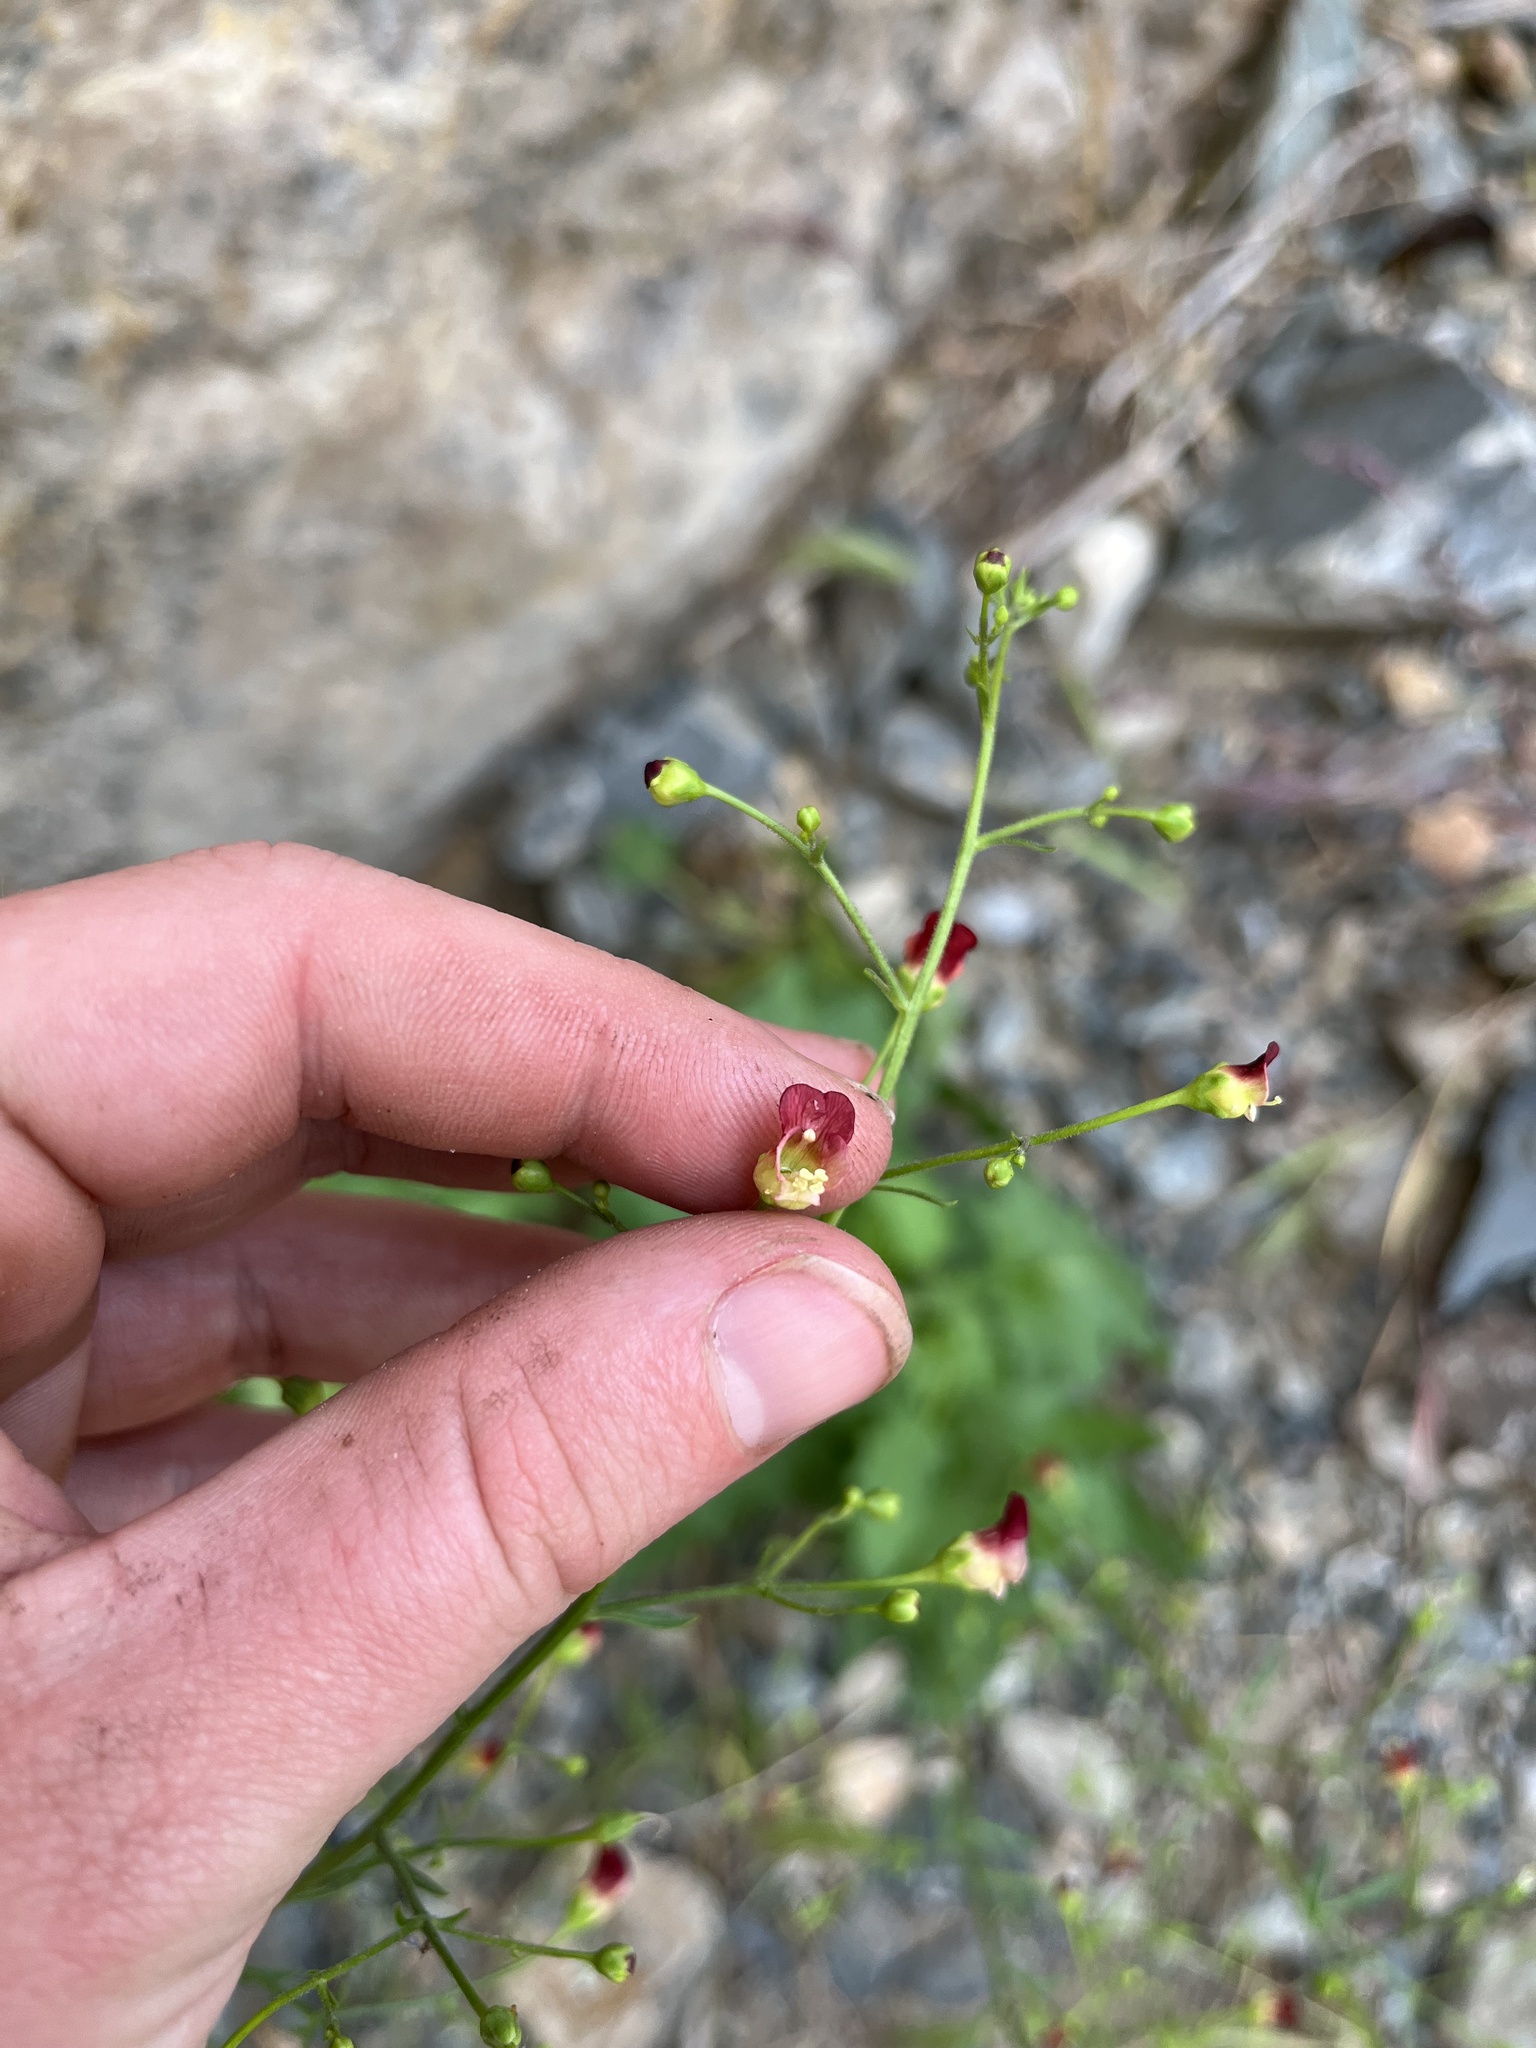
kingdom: Plantae
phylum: Tracheophyta
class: Magnoliopsida
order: Lamiales
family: Scrophulariaceae
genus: Scrophularia
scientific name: Scrophularia desertorum
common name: Desert figwort
